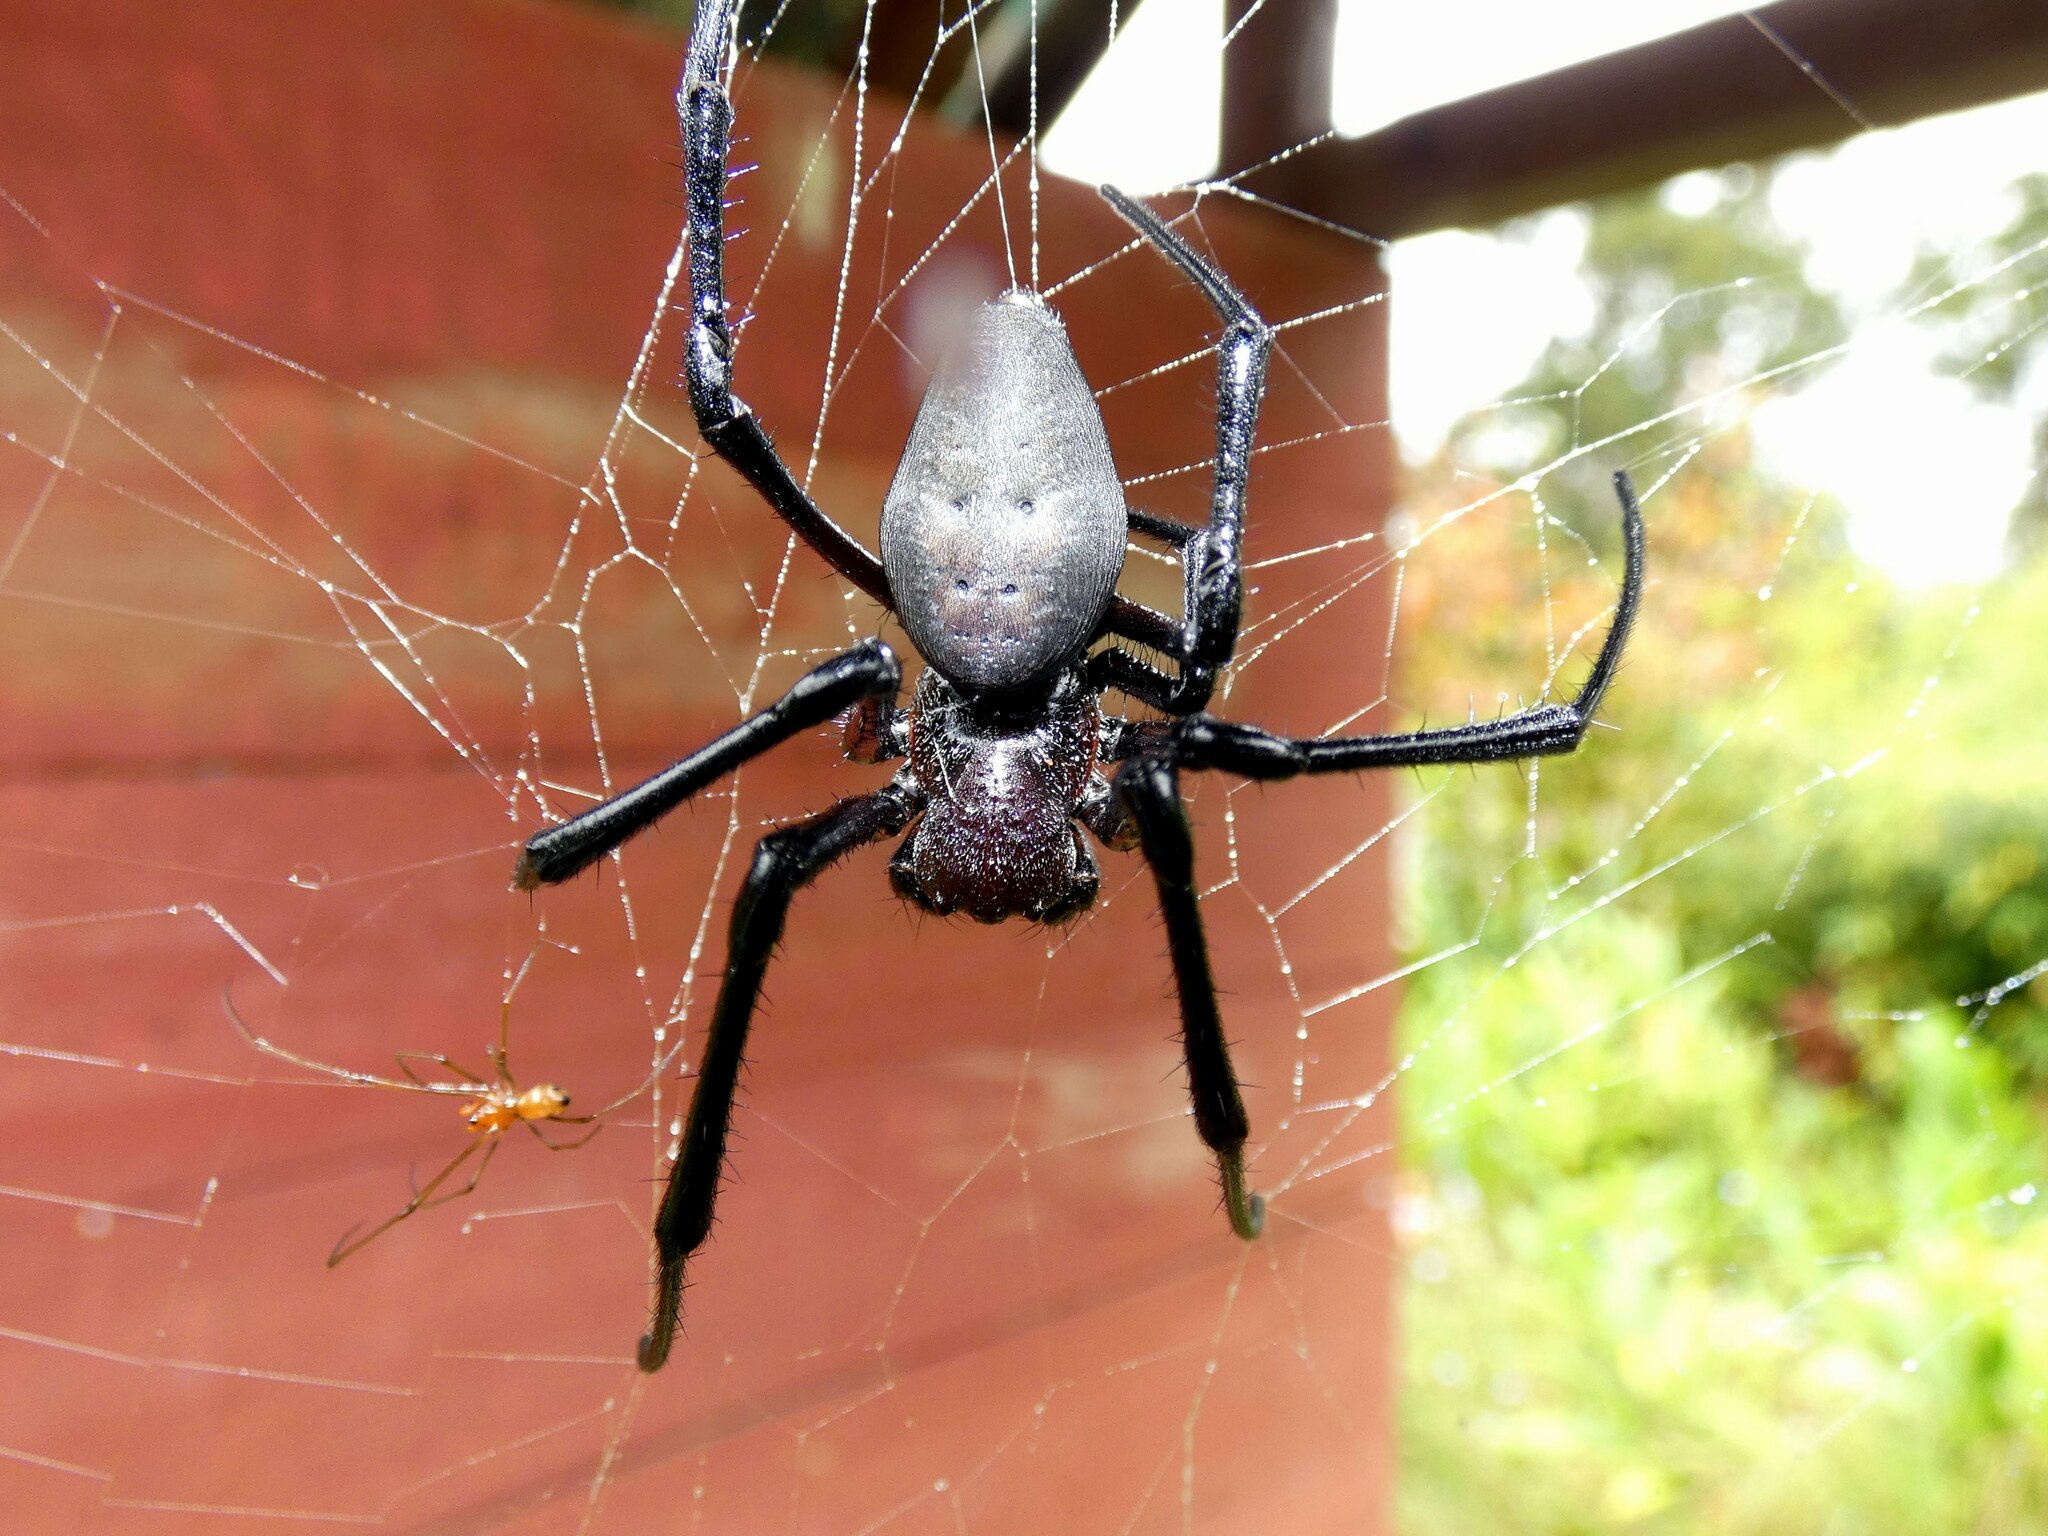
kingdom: Animalia
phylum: Arthropoda
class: Arachnida
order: Araneae
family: Araneidae
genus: Nephilingis
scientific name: Nephilingis livida
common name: Madagascar hermit spider
